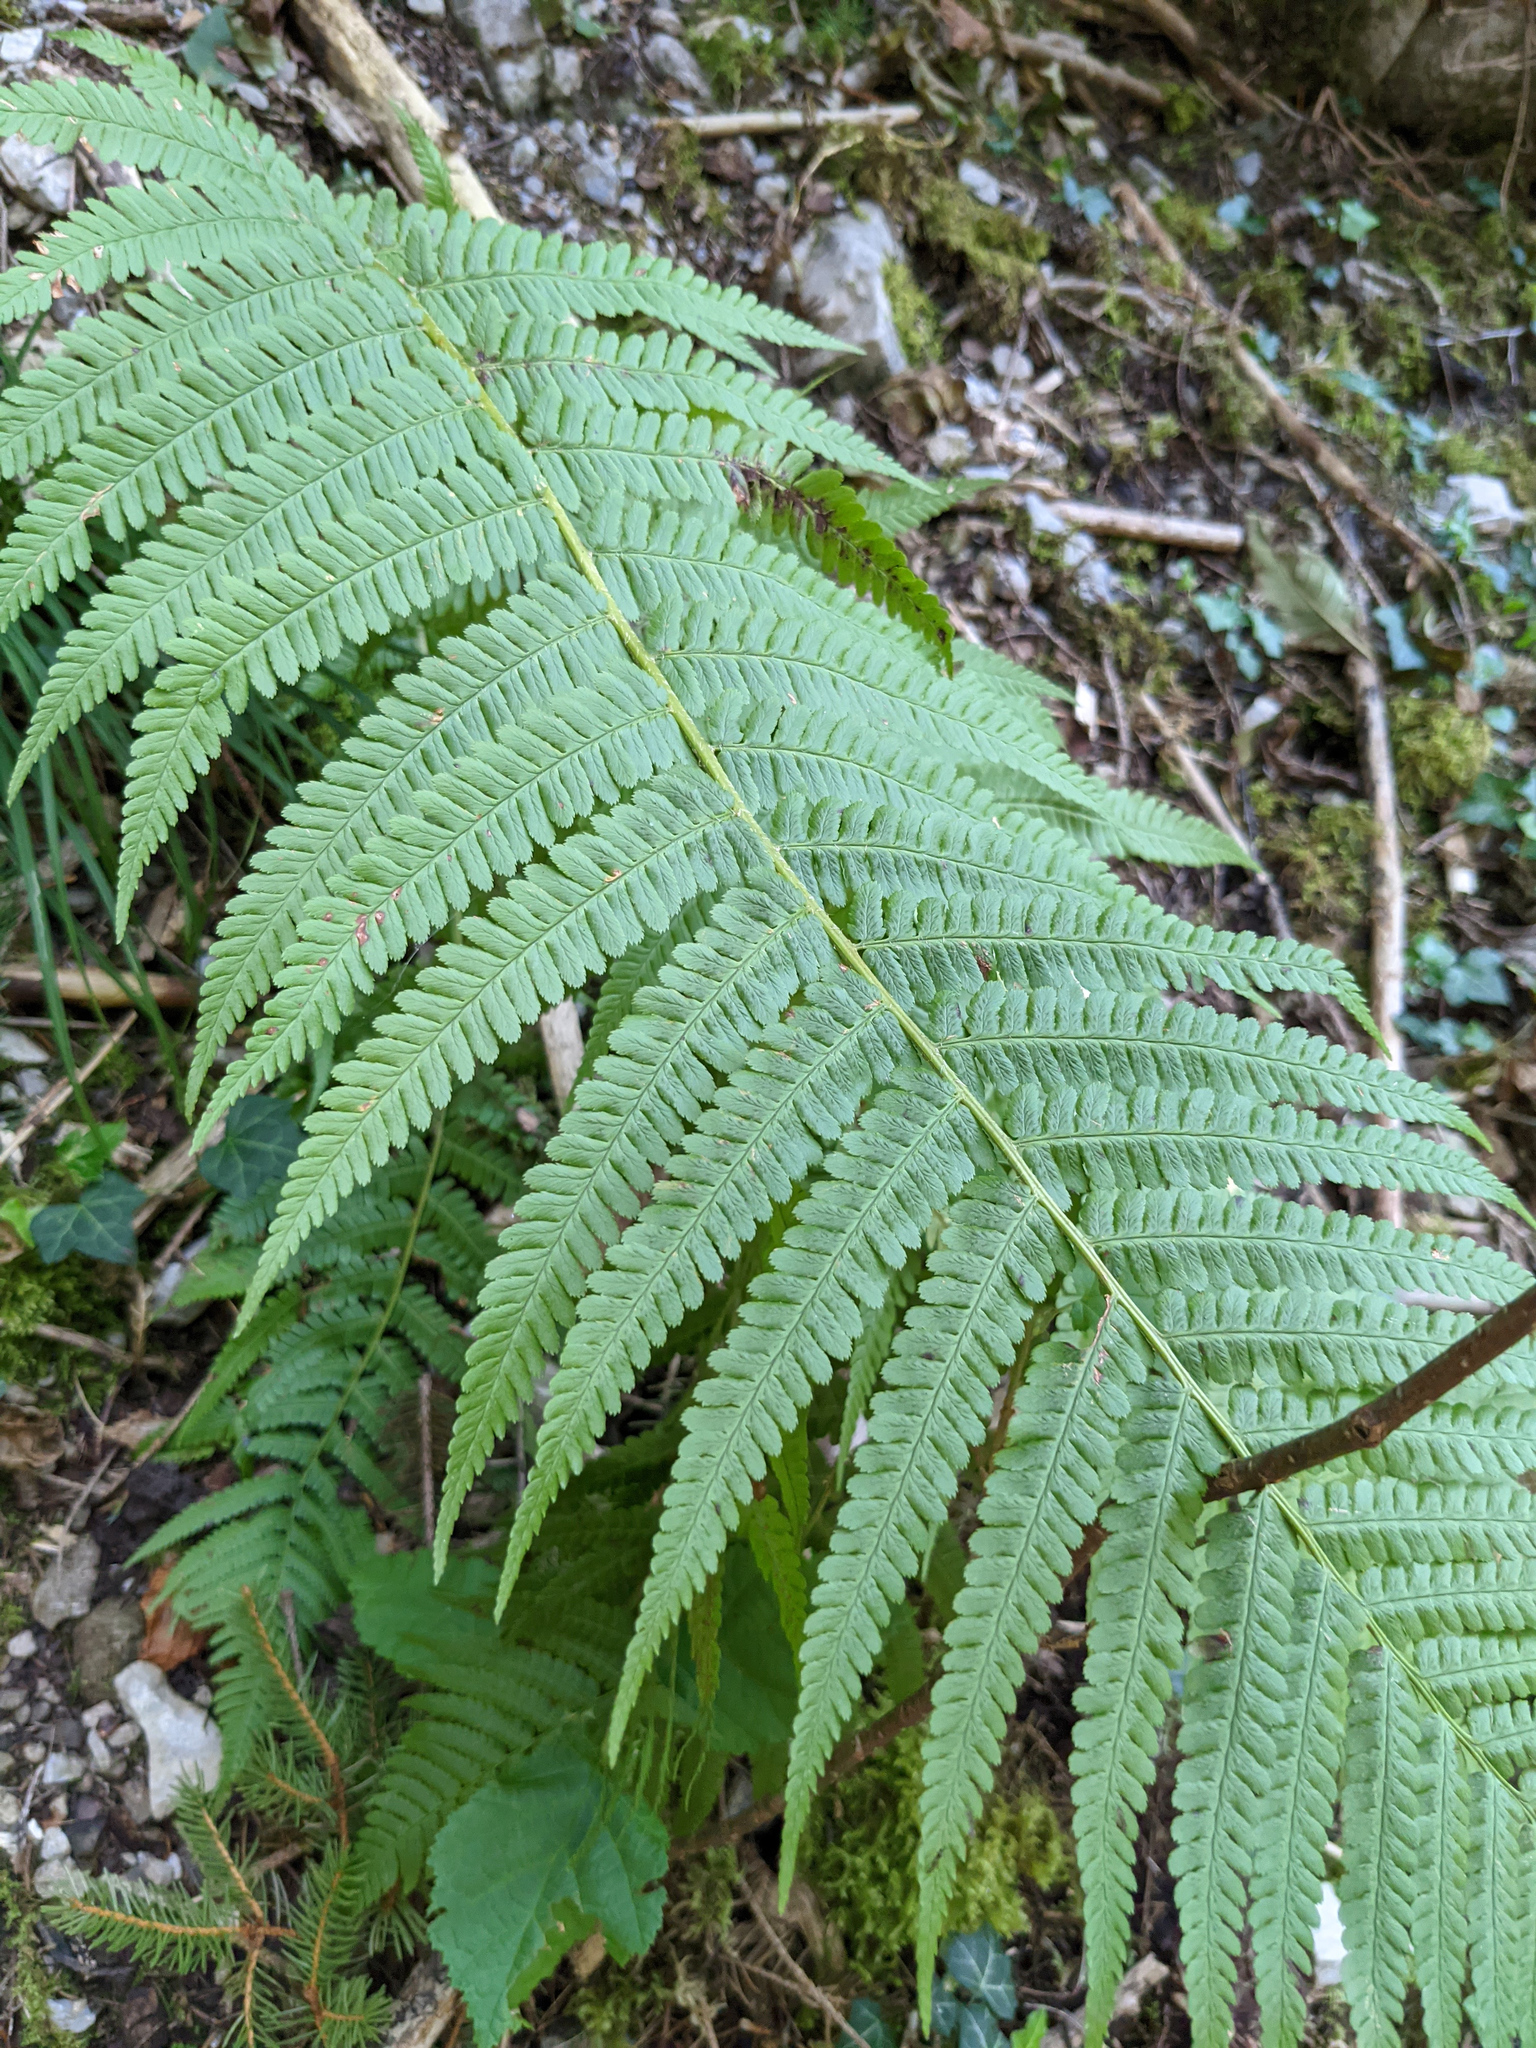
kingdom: Plantae
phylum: Tracheophyta
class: Polypodiopsida
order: Polypodiales
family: Dryopteridaceae
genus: Dryopteris
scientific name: Dryopteris filix-mas
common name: Male fern
